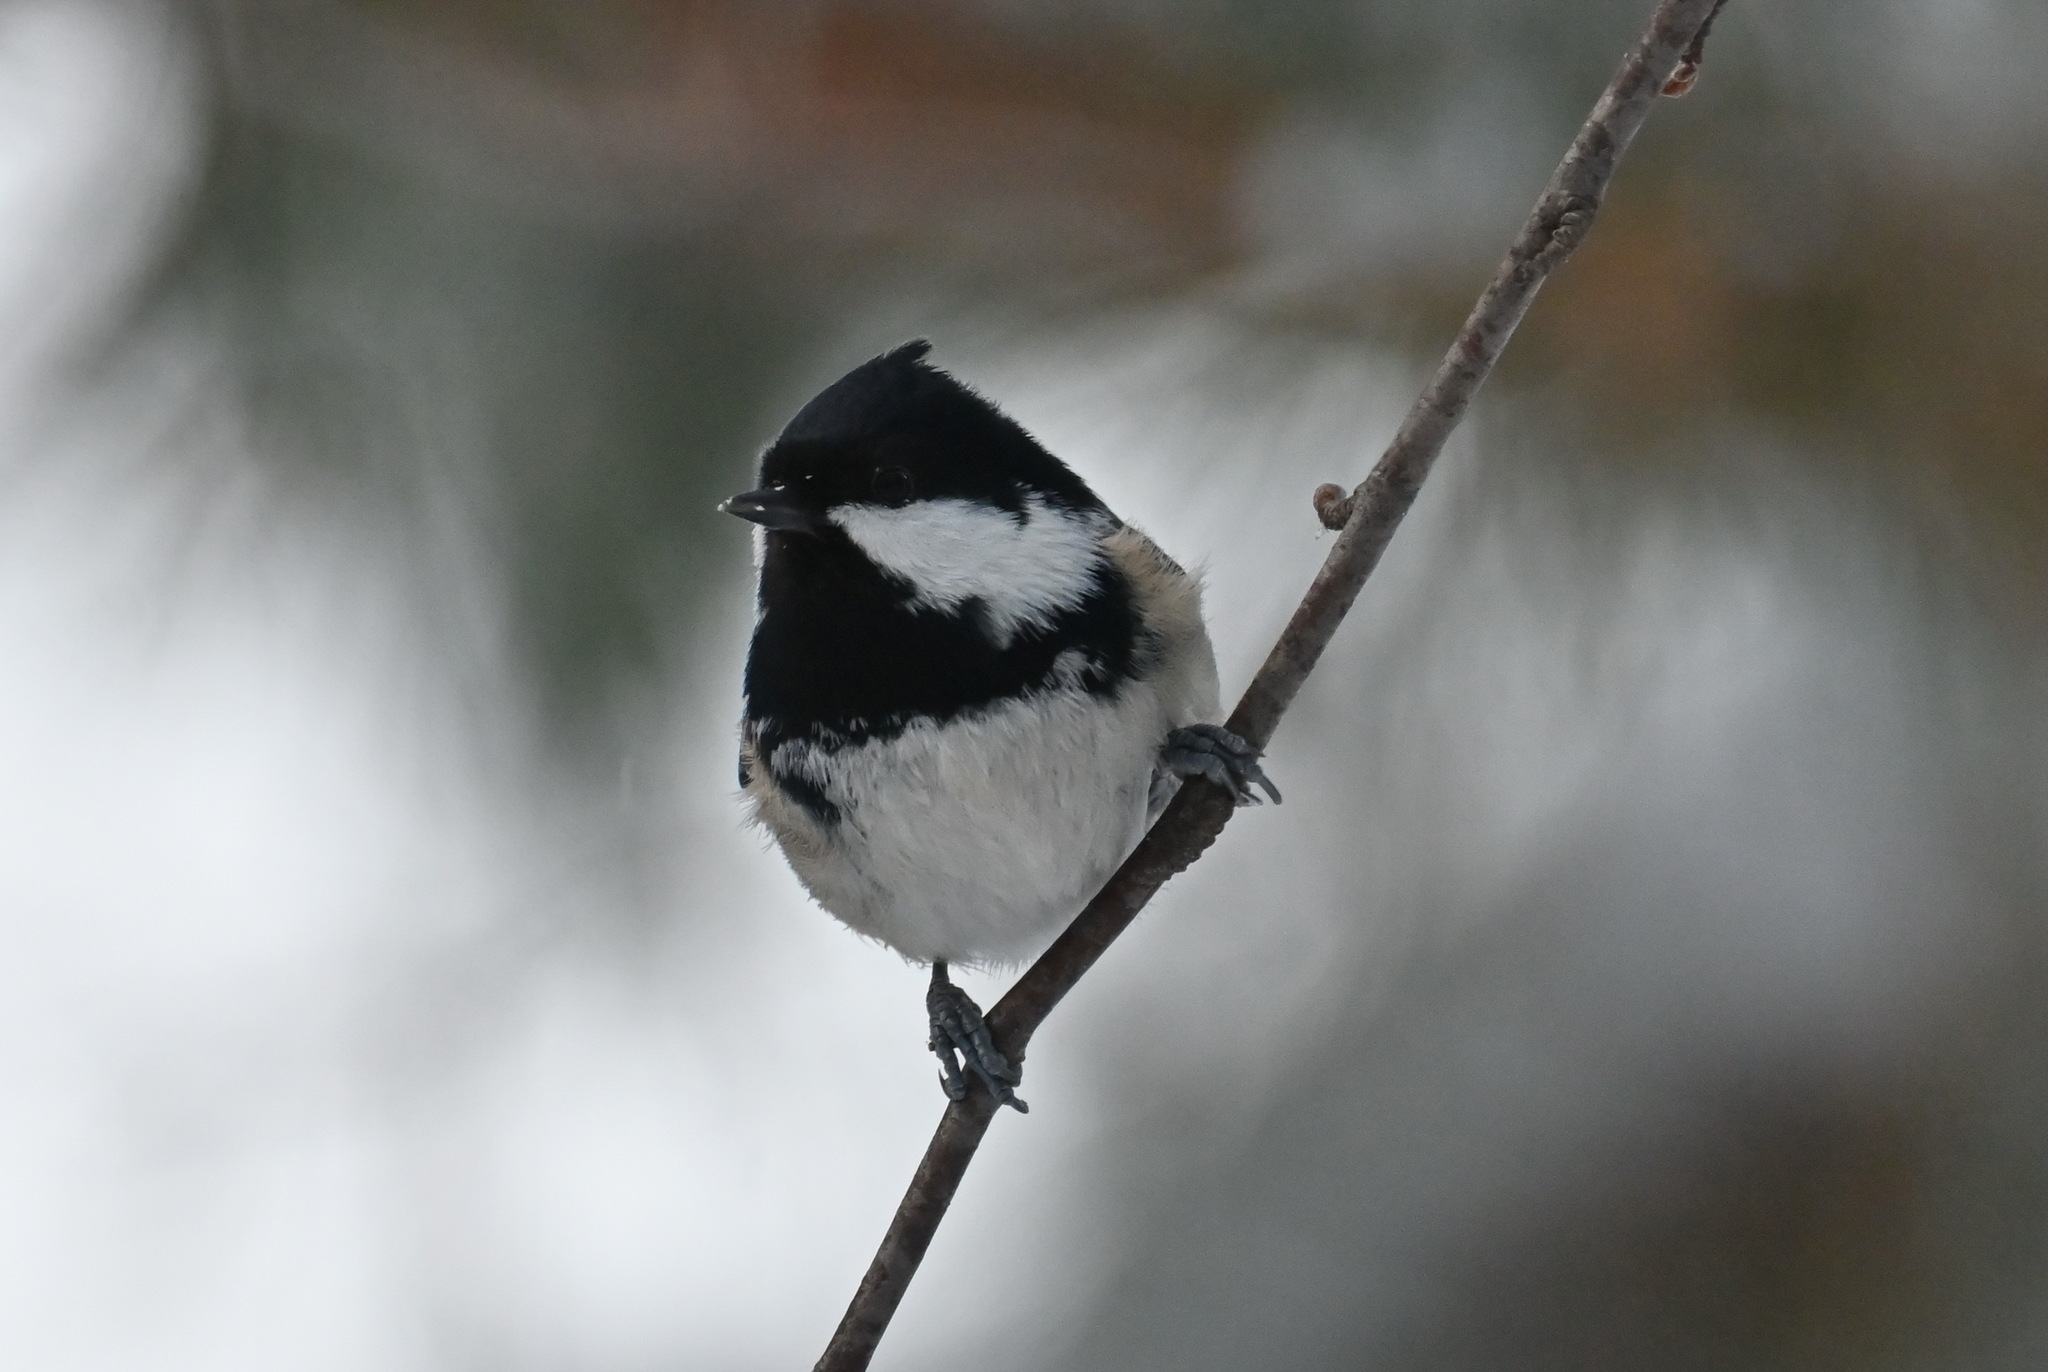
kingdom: Animalia
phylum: Chordata
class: Aves
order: Passeriformes
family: Paridae
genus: Periparus
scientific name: Periparus ater
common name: Coal tit
